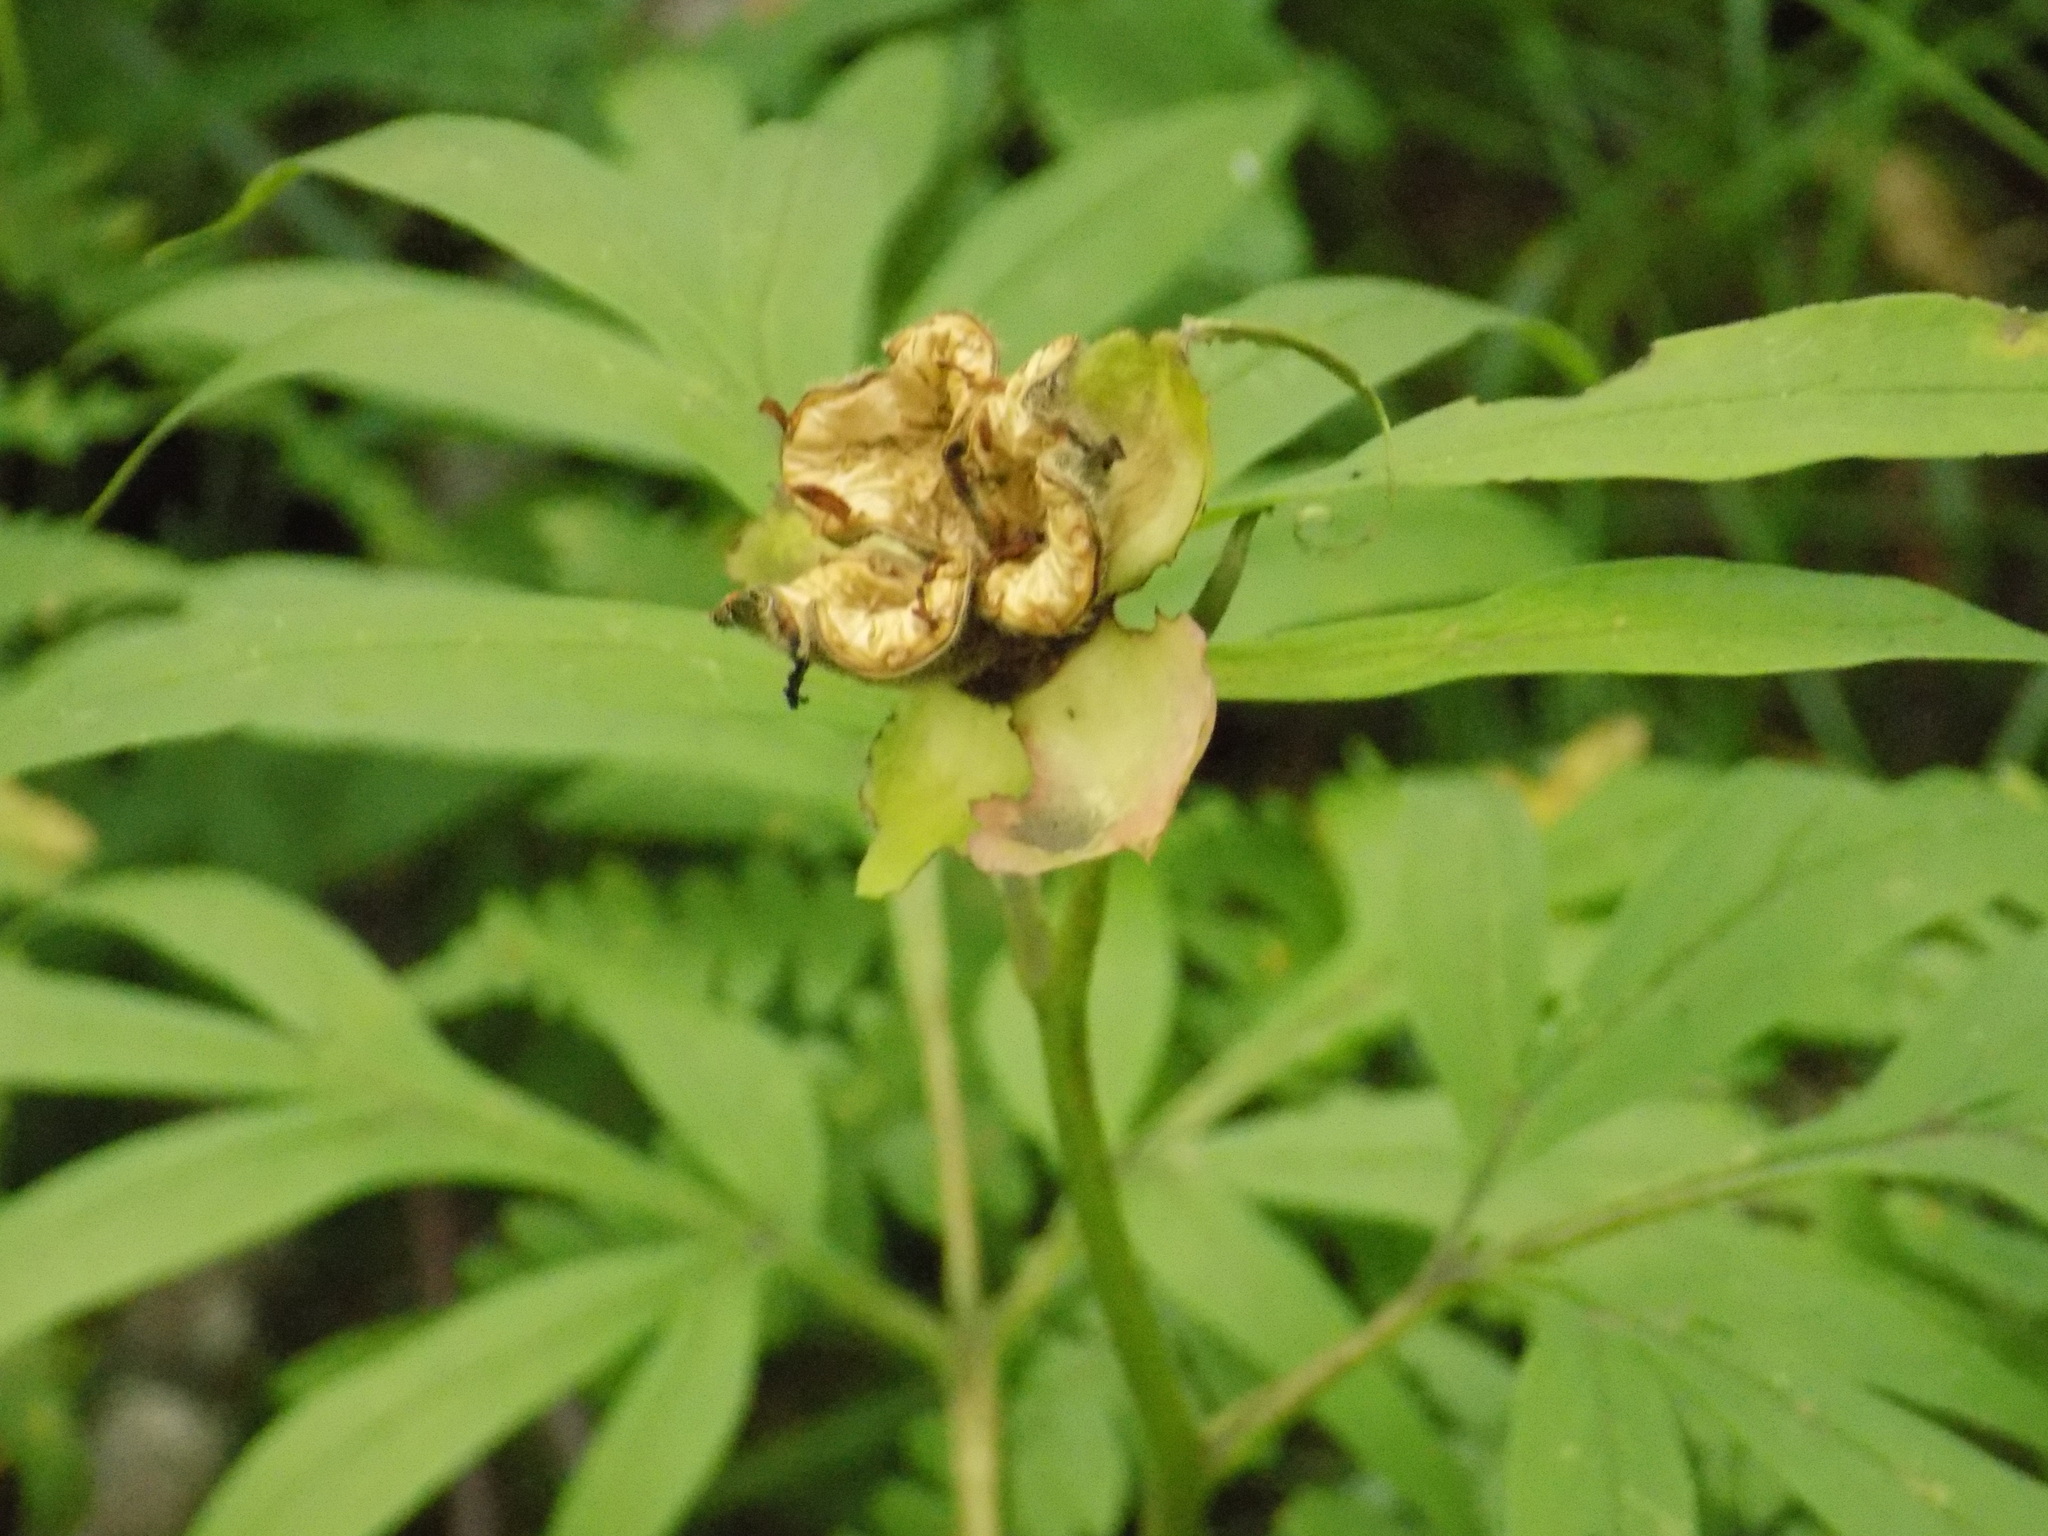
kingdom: Plantae
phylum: Tracheophyta
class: Magnoliopsida
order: Saxifragales
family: Paeoniaceae
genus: Paeonia
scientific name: Paeonia anomala
